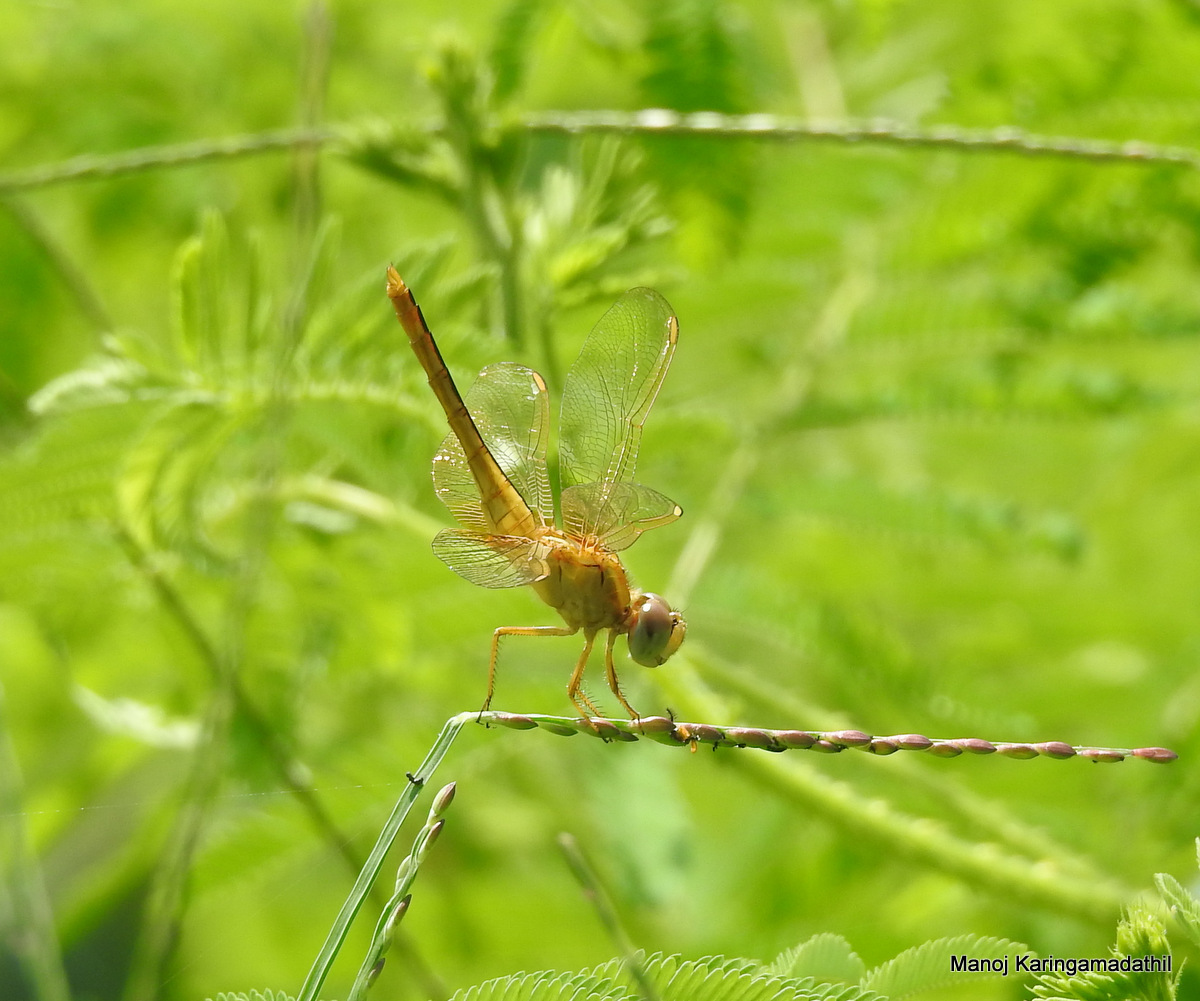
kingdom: Animalia
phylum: Arthropoda
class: Insecta
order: Odonata
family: Libellulidae
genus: Crocothemis
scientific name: Crocothemis servilia
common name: Scarlet skimmer
